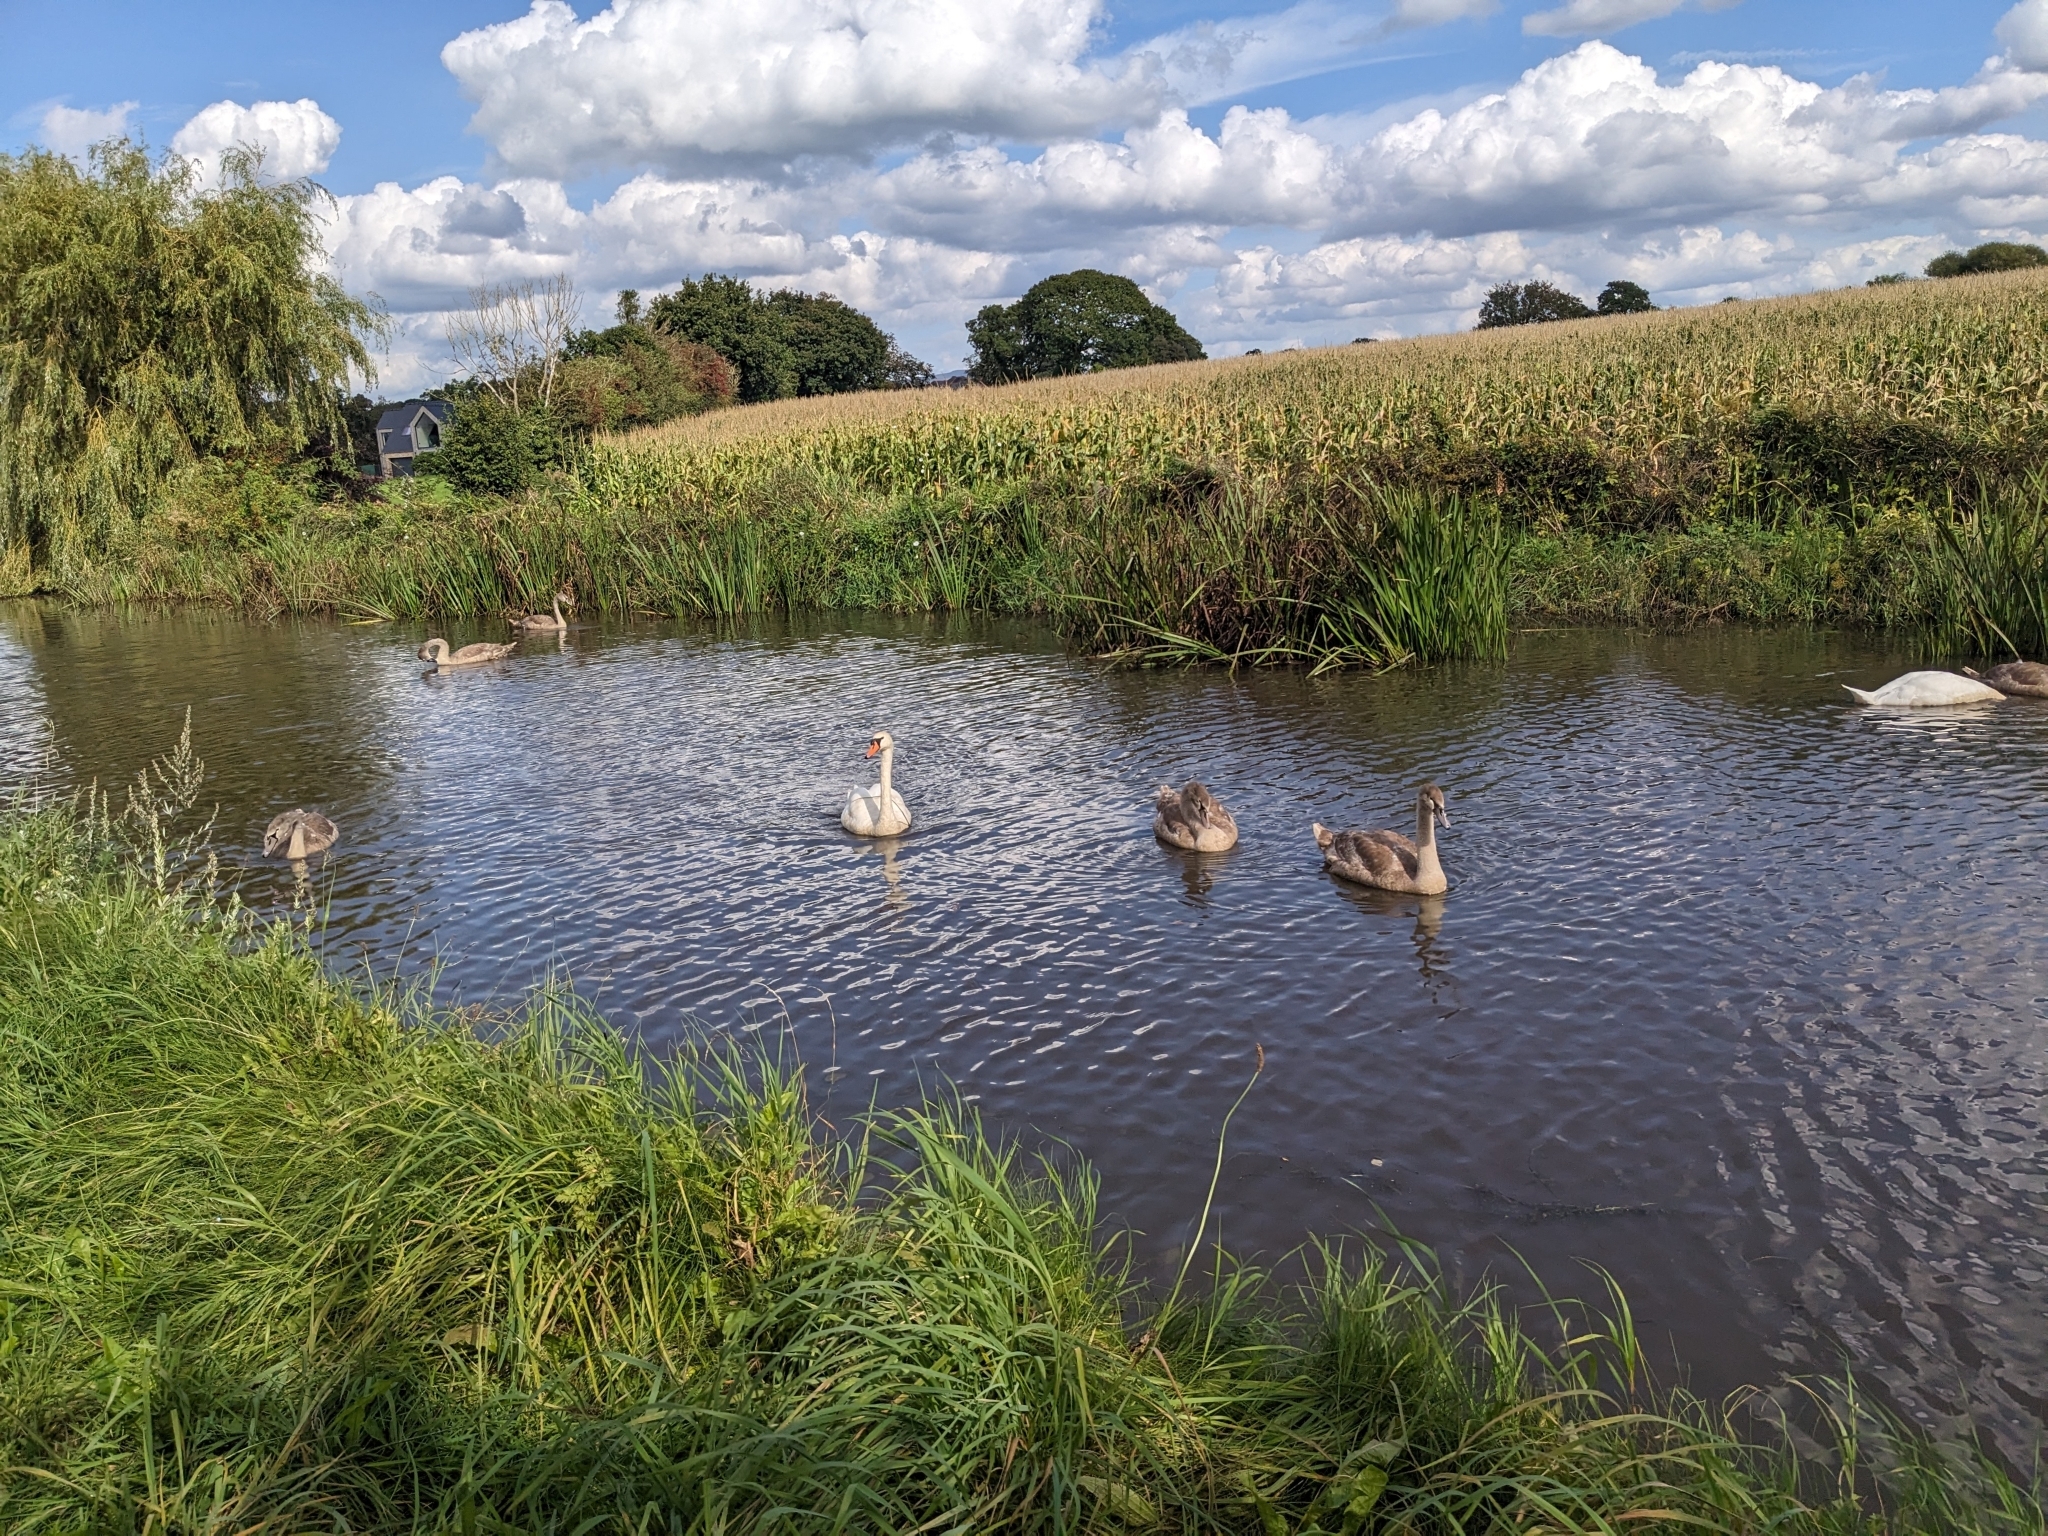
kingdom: Animalia
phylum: Chordata
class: Aves
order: Anseriformes
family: Anatidae
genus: Cygnus
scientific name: Cygnus olor
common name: Mute swan
